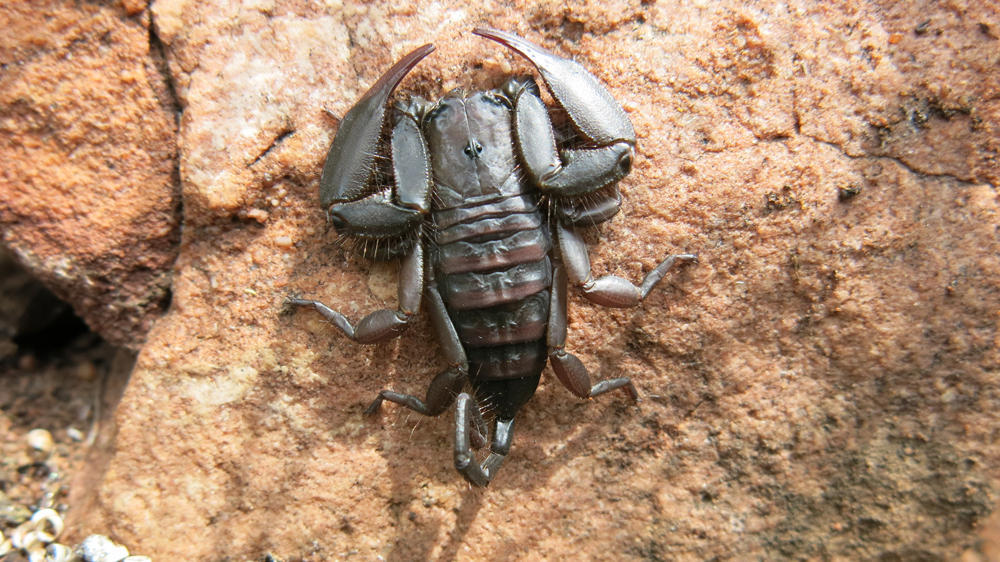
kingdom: Animalia
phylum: Arthropoda
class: Arachnida
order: Scorpiones
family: Hormuridae
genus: Hadogenes
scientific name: Hadogenes soutpansbergensis
